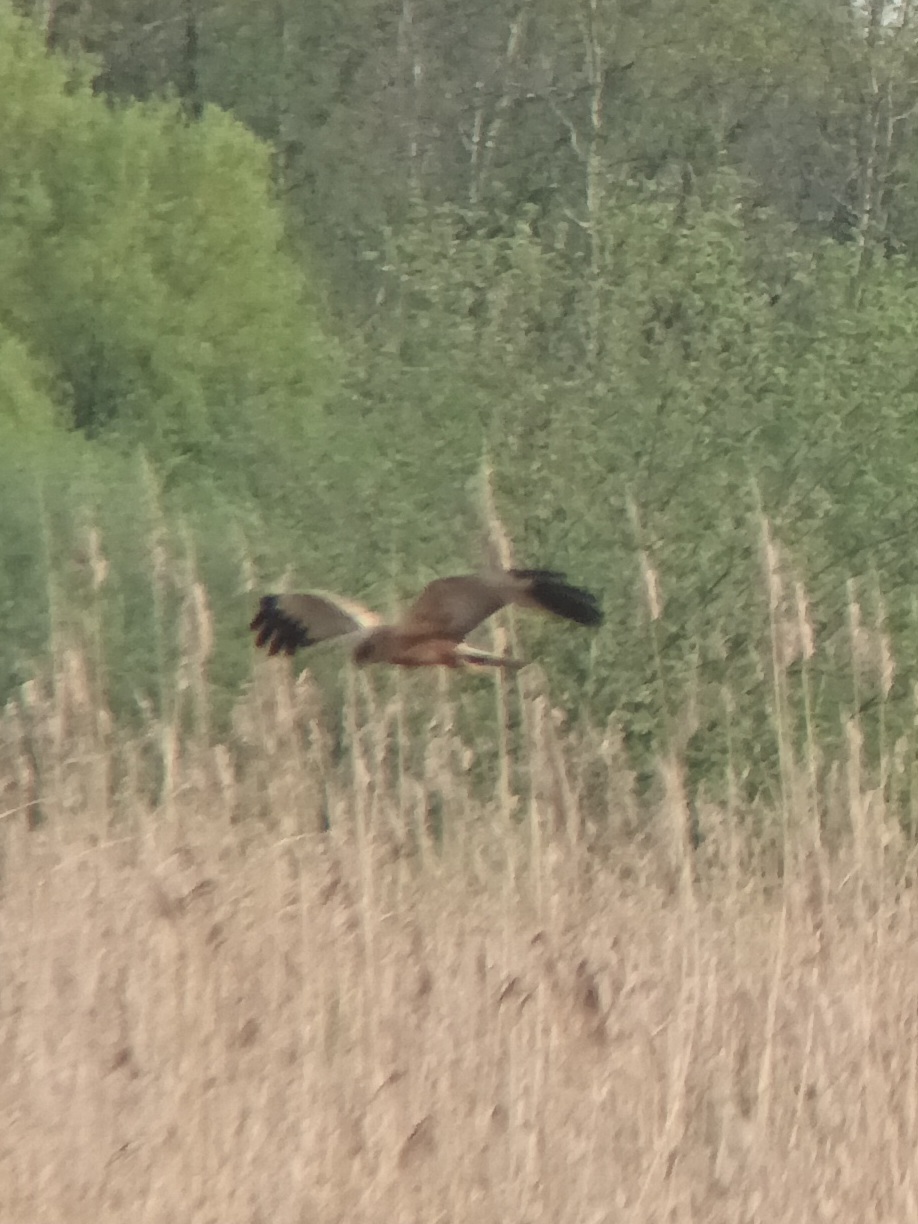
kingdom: Animalia
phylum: Chordata
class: Aves
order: Accipitriformes
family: Accipitridae
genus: Circus
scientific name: Circus aeruginosus
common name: Western marsh harrier
